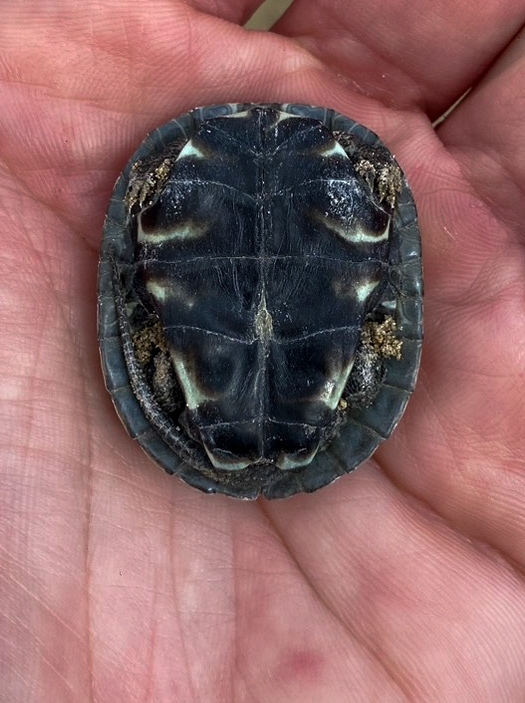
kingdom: Animalia
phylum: Chordata
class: Testudines
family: Geoemydidae
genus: Mauremys
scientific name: Mauremys rivulata
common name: Western caspian turtle
